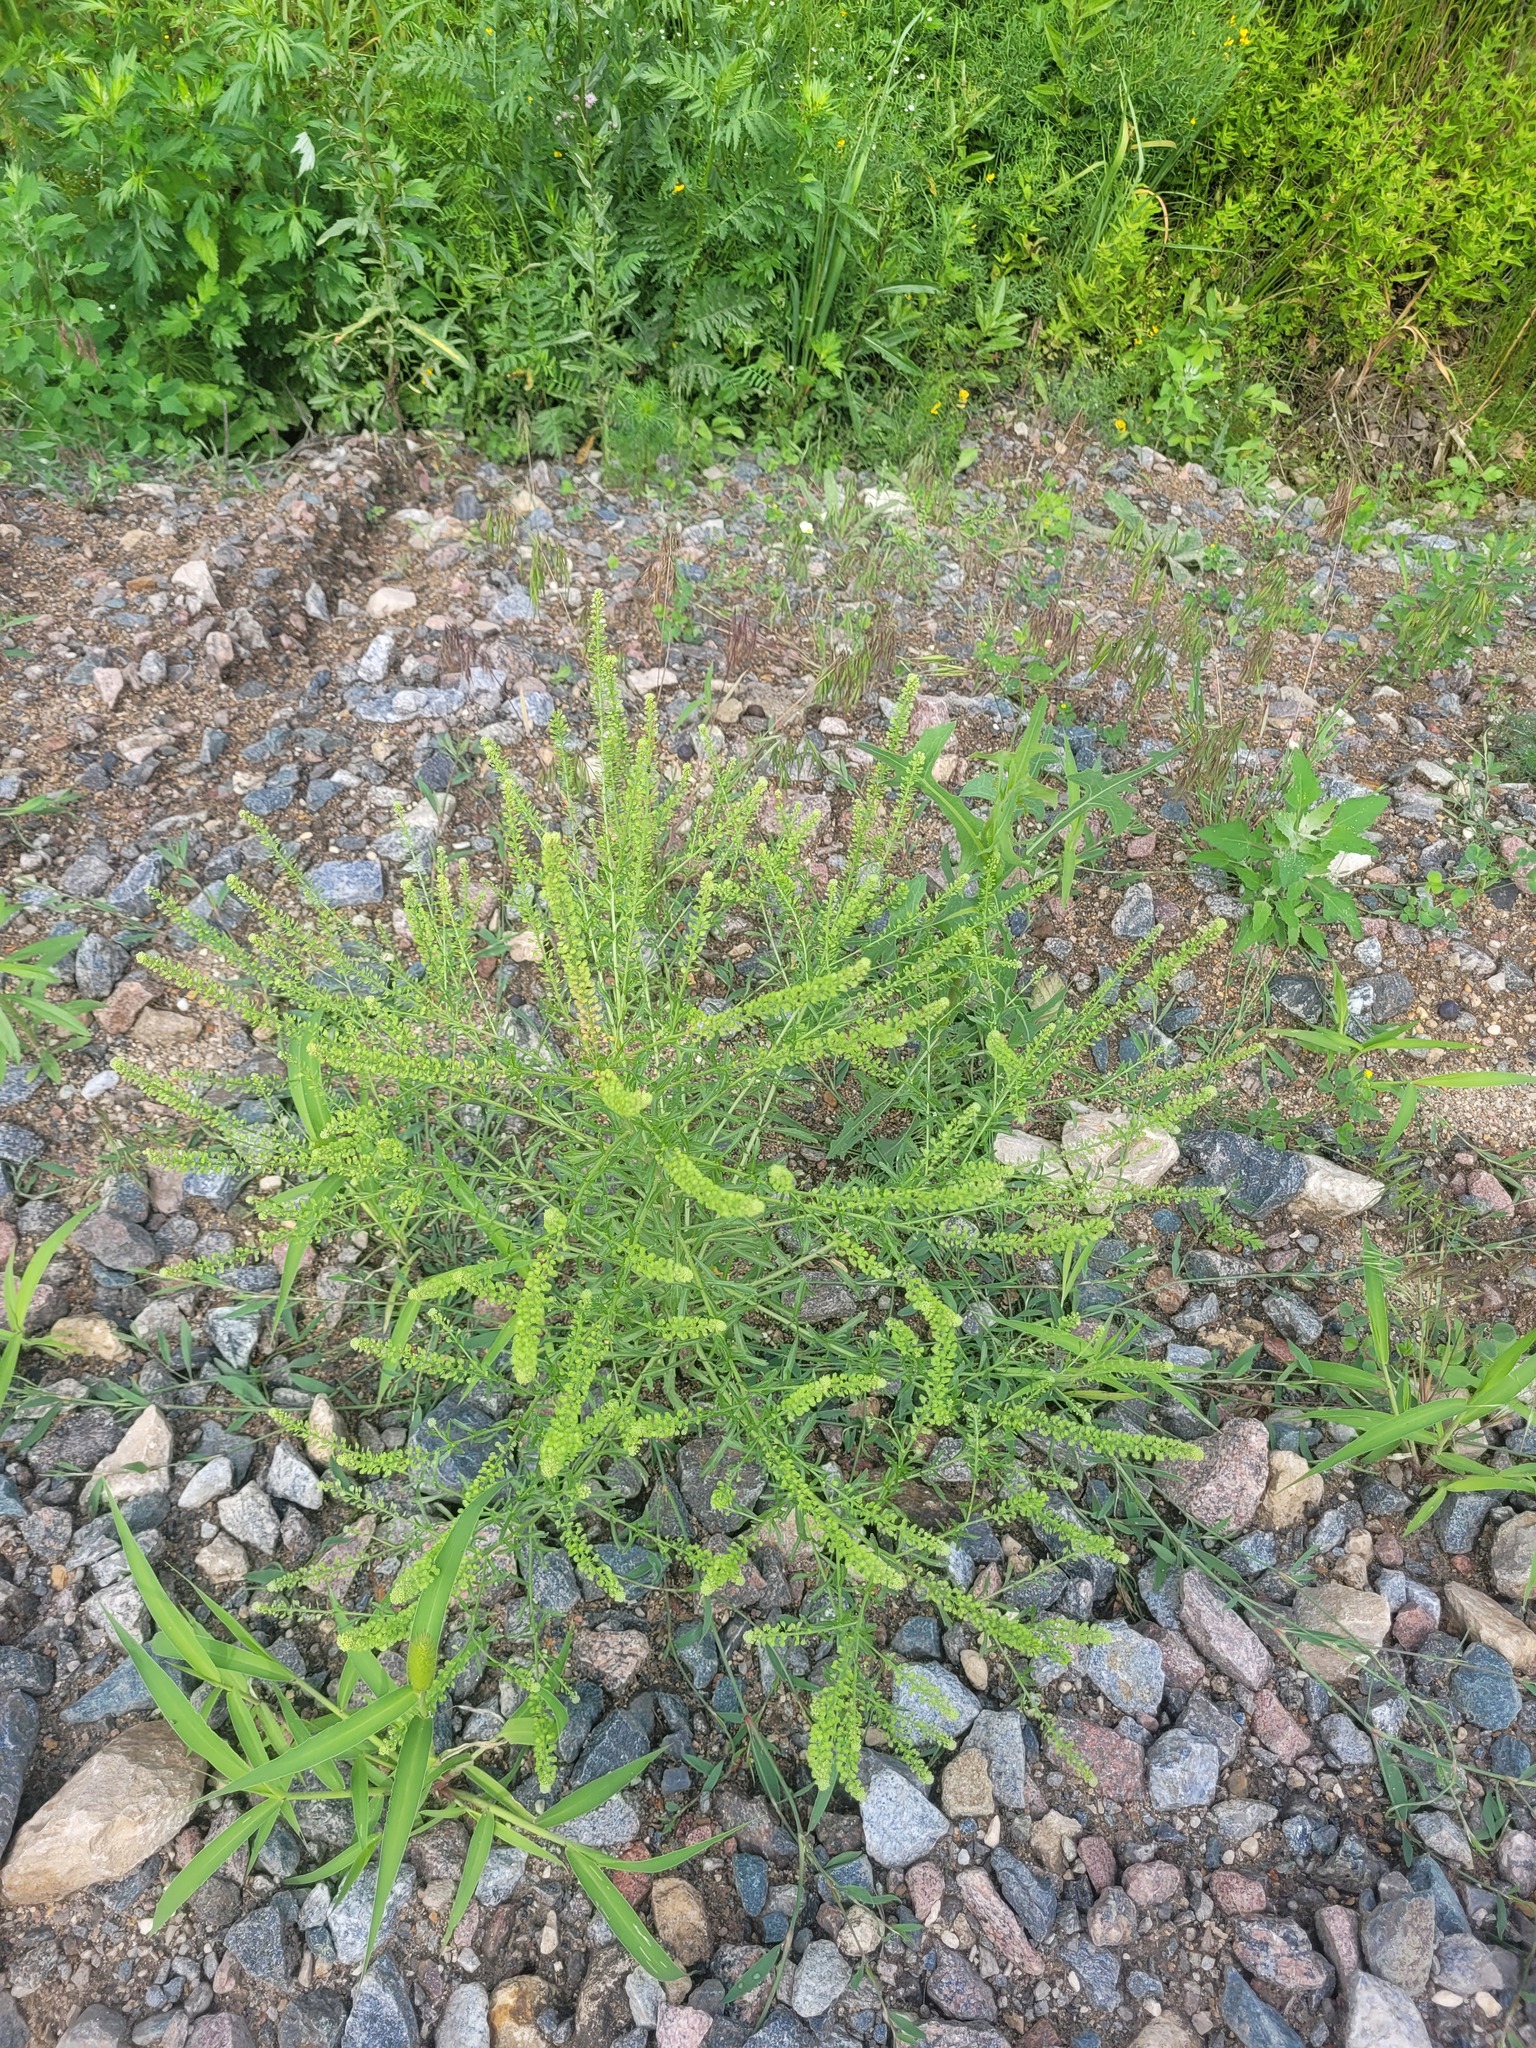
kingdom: Plantae
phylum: Tracheophyta
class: Magnoliopsida
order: Brassicales
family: Brassicaceae
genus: Lepidium
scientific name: Lepidium densiflorum
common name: Miner's pepperwort
